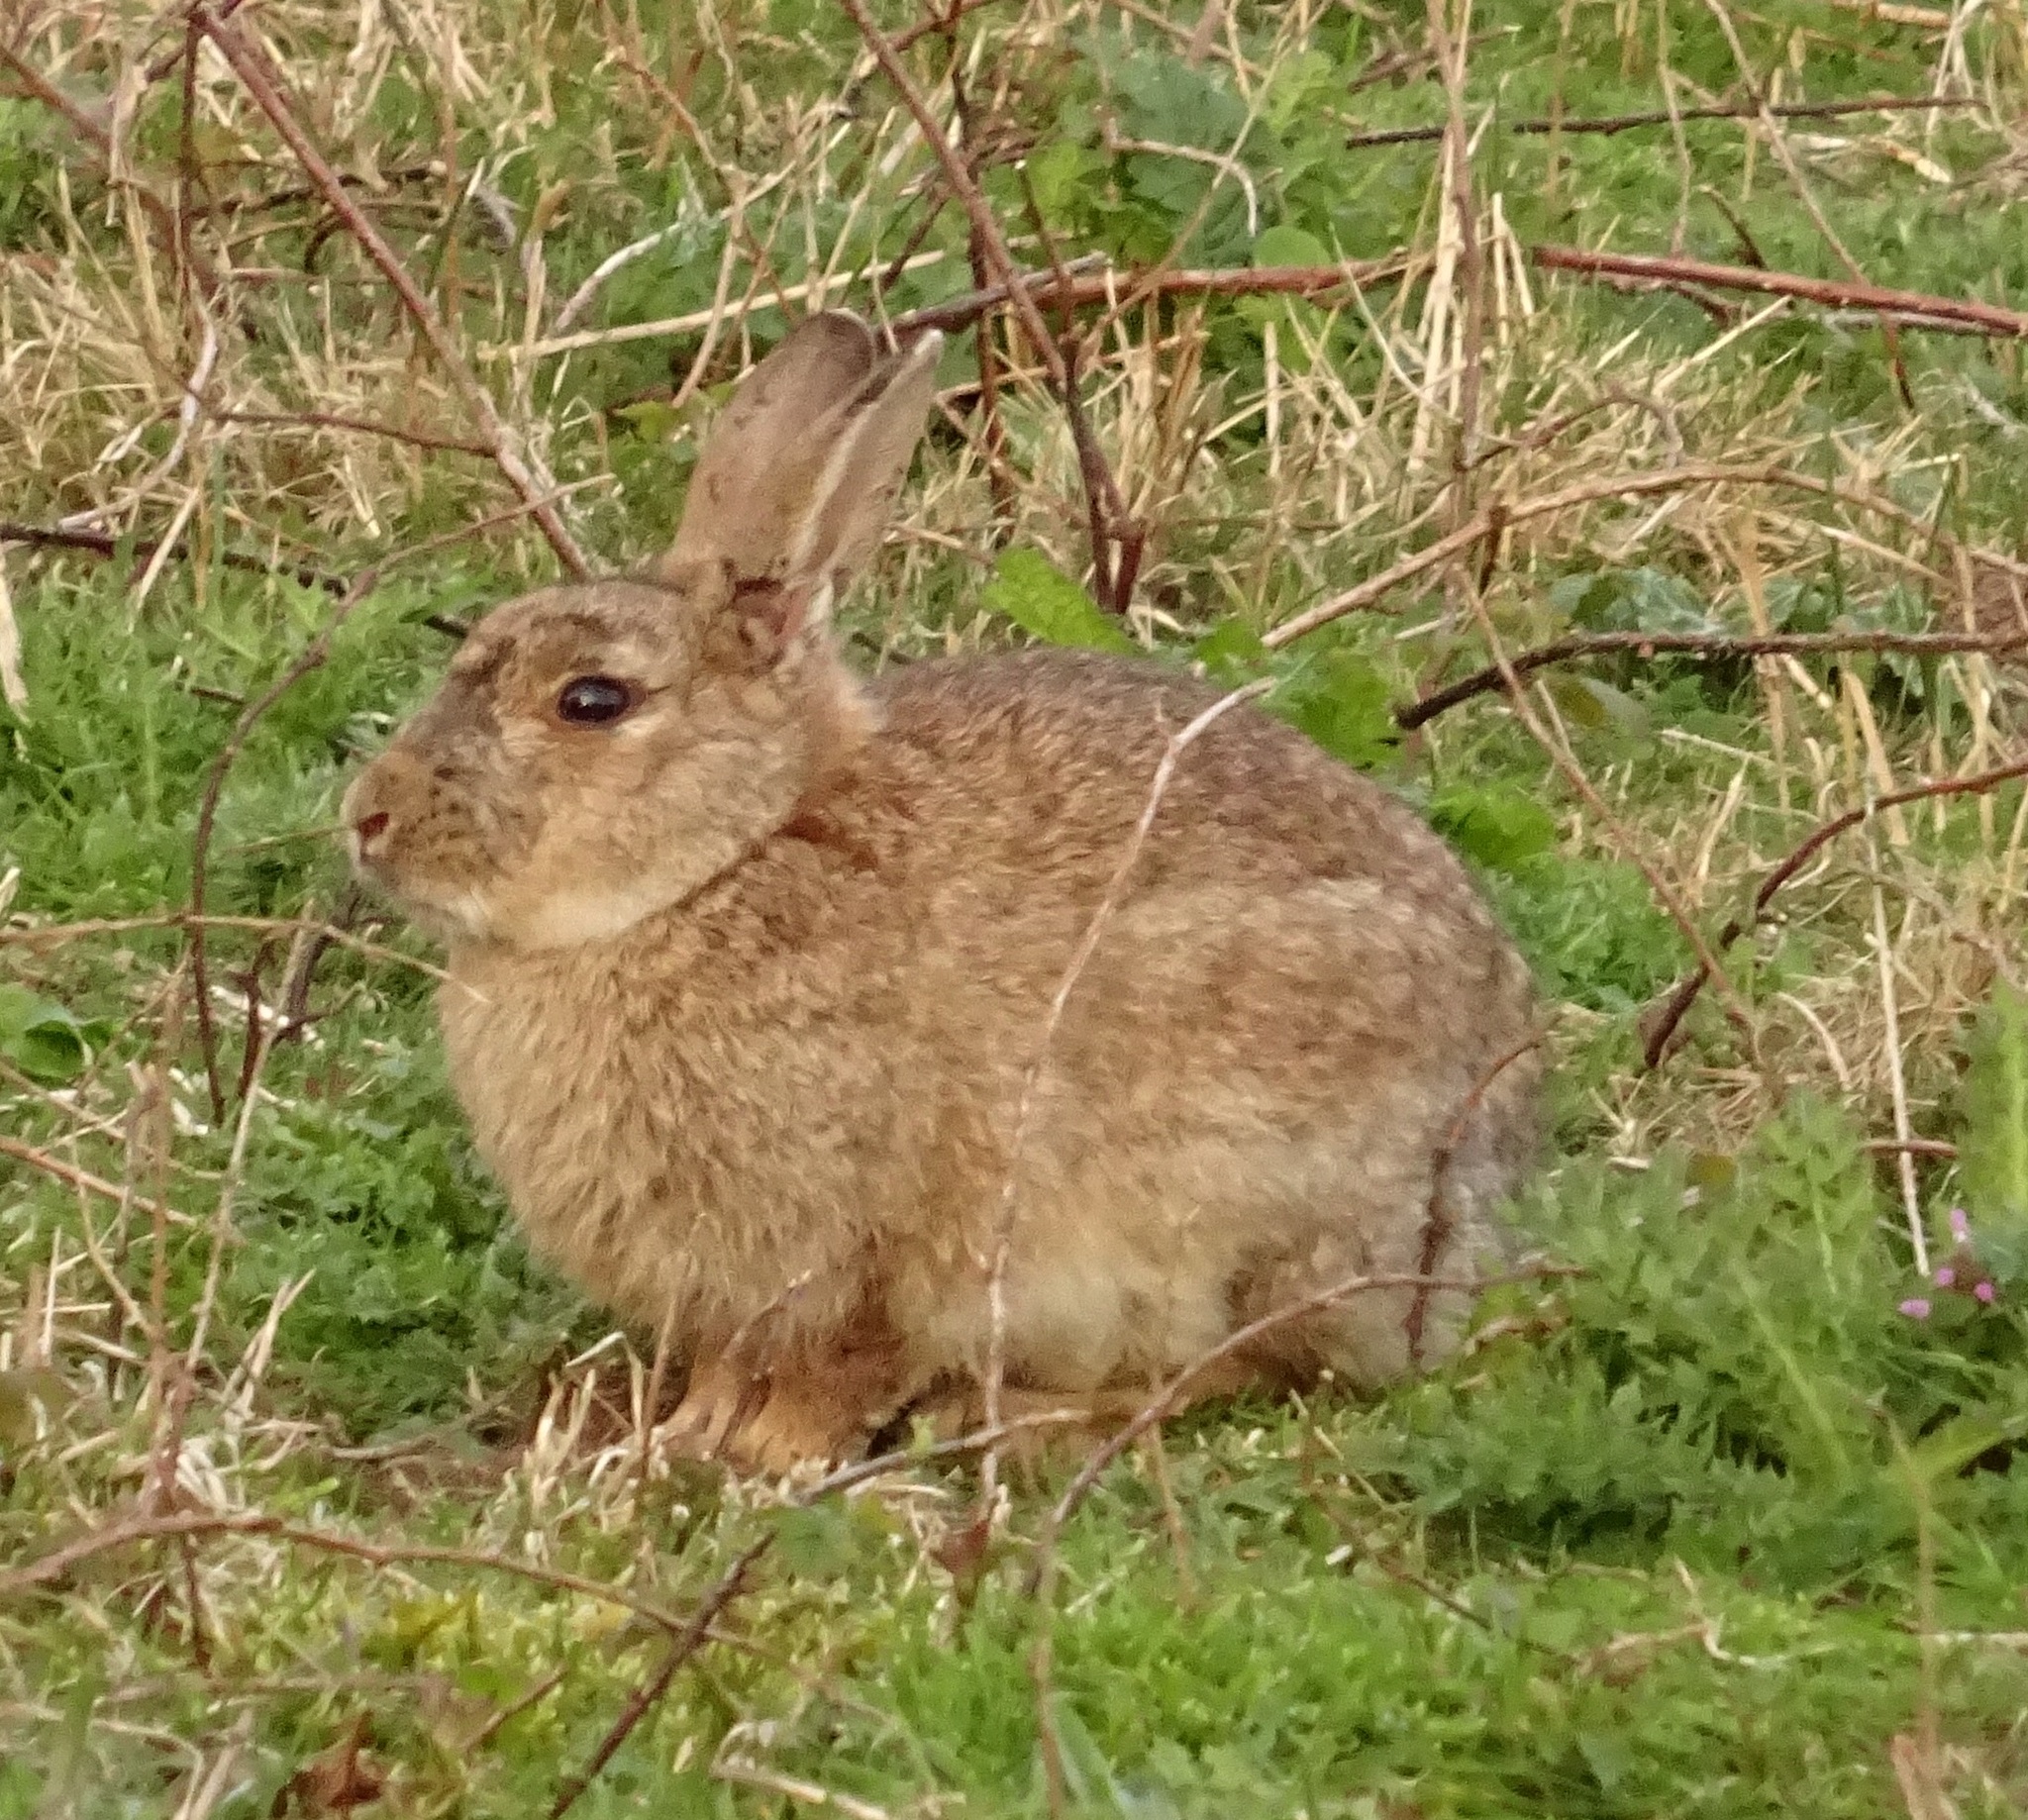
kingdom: Animalia
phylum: Chordata
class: Mammalia
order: Lagomorpha
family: Leporidae
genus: Oryctolagus
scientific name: Oryctolagus cuniculus
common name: European rabbit
